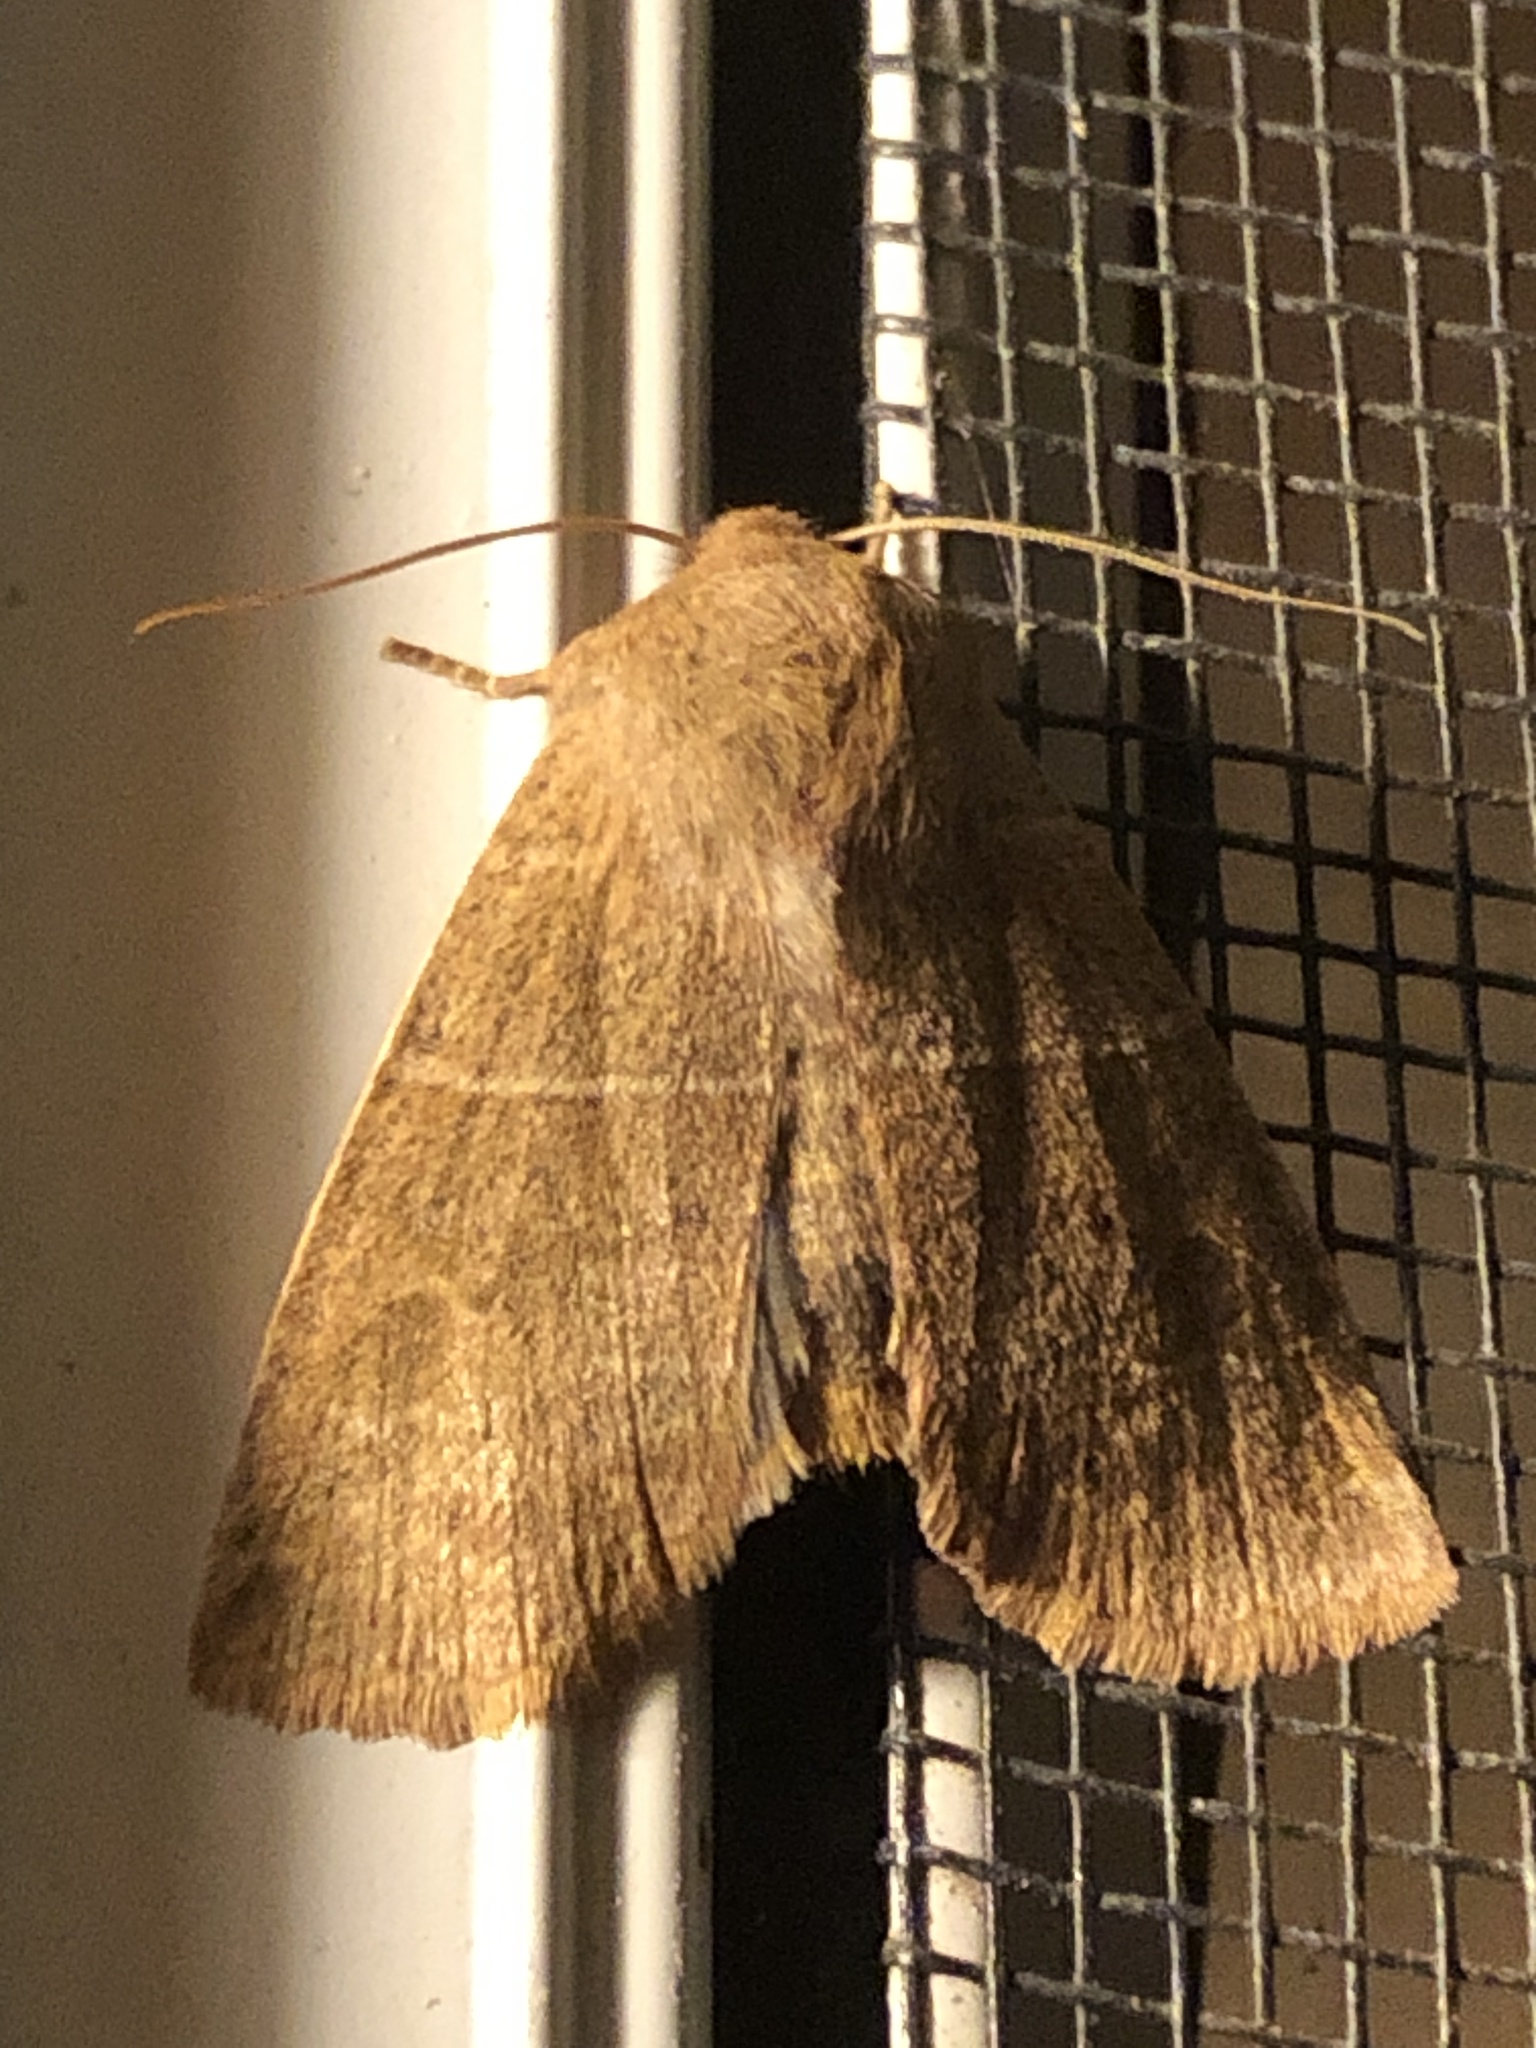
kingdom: Animalia
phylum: Arthropoda
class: Insecta
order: Lepidoptera
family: Noctuidae
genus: Eupsilia
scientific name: Eupsilia morrisoni
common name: Morrison's sallow
